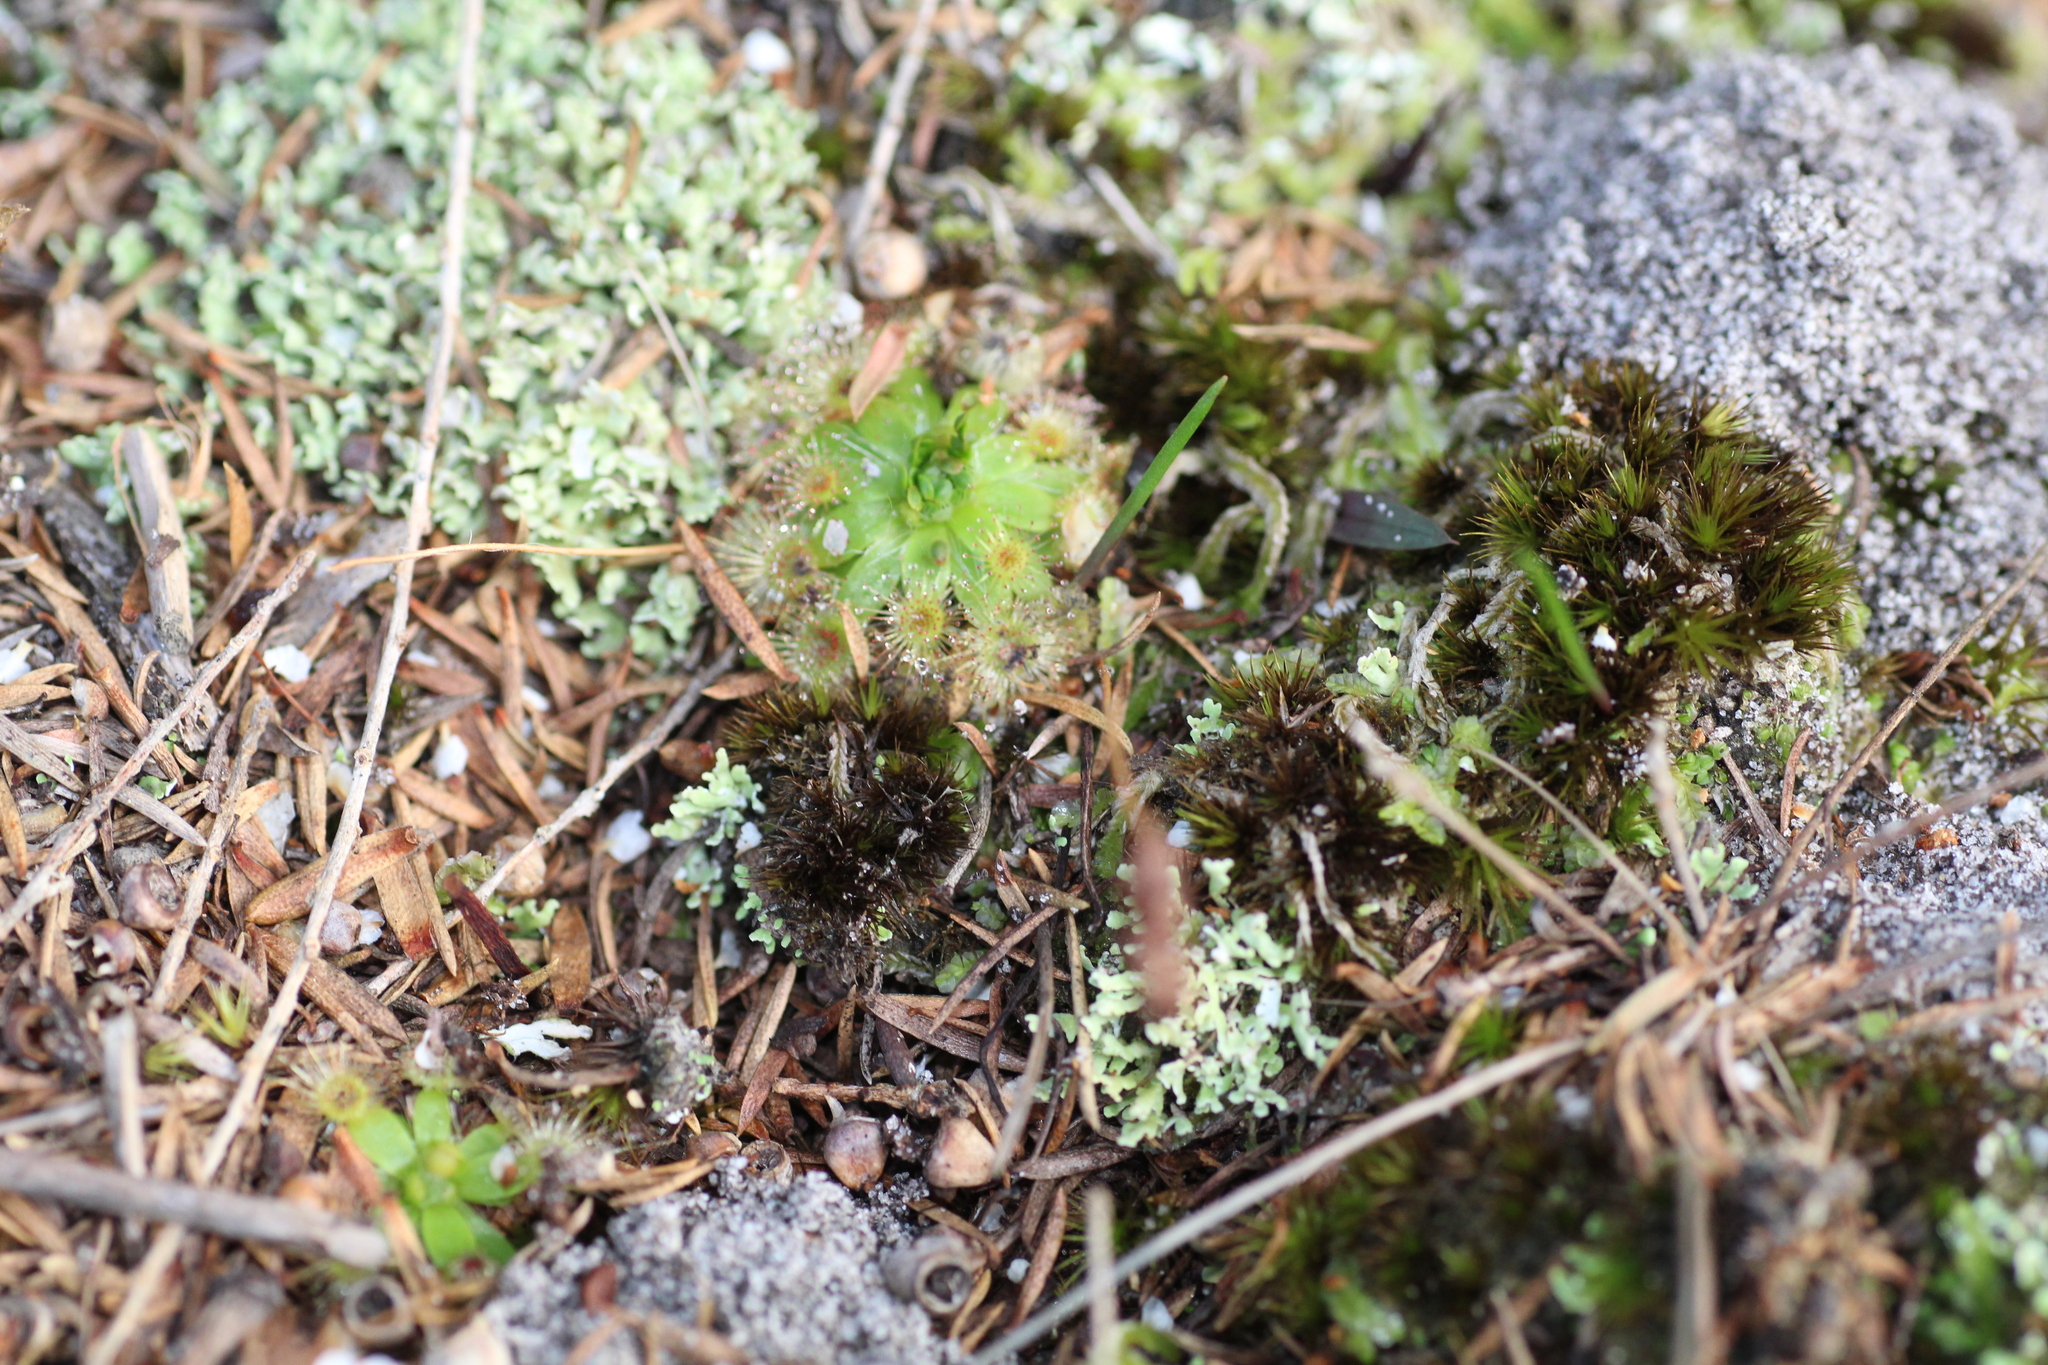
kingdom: Plantae
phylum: Tracheophyta
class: Magnoliopsida
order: Caryophyllales
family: Droseraceae
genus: Drosera
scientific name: Drosera pulchella
